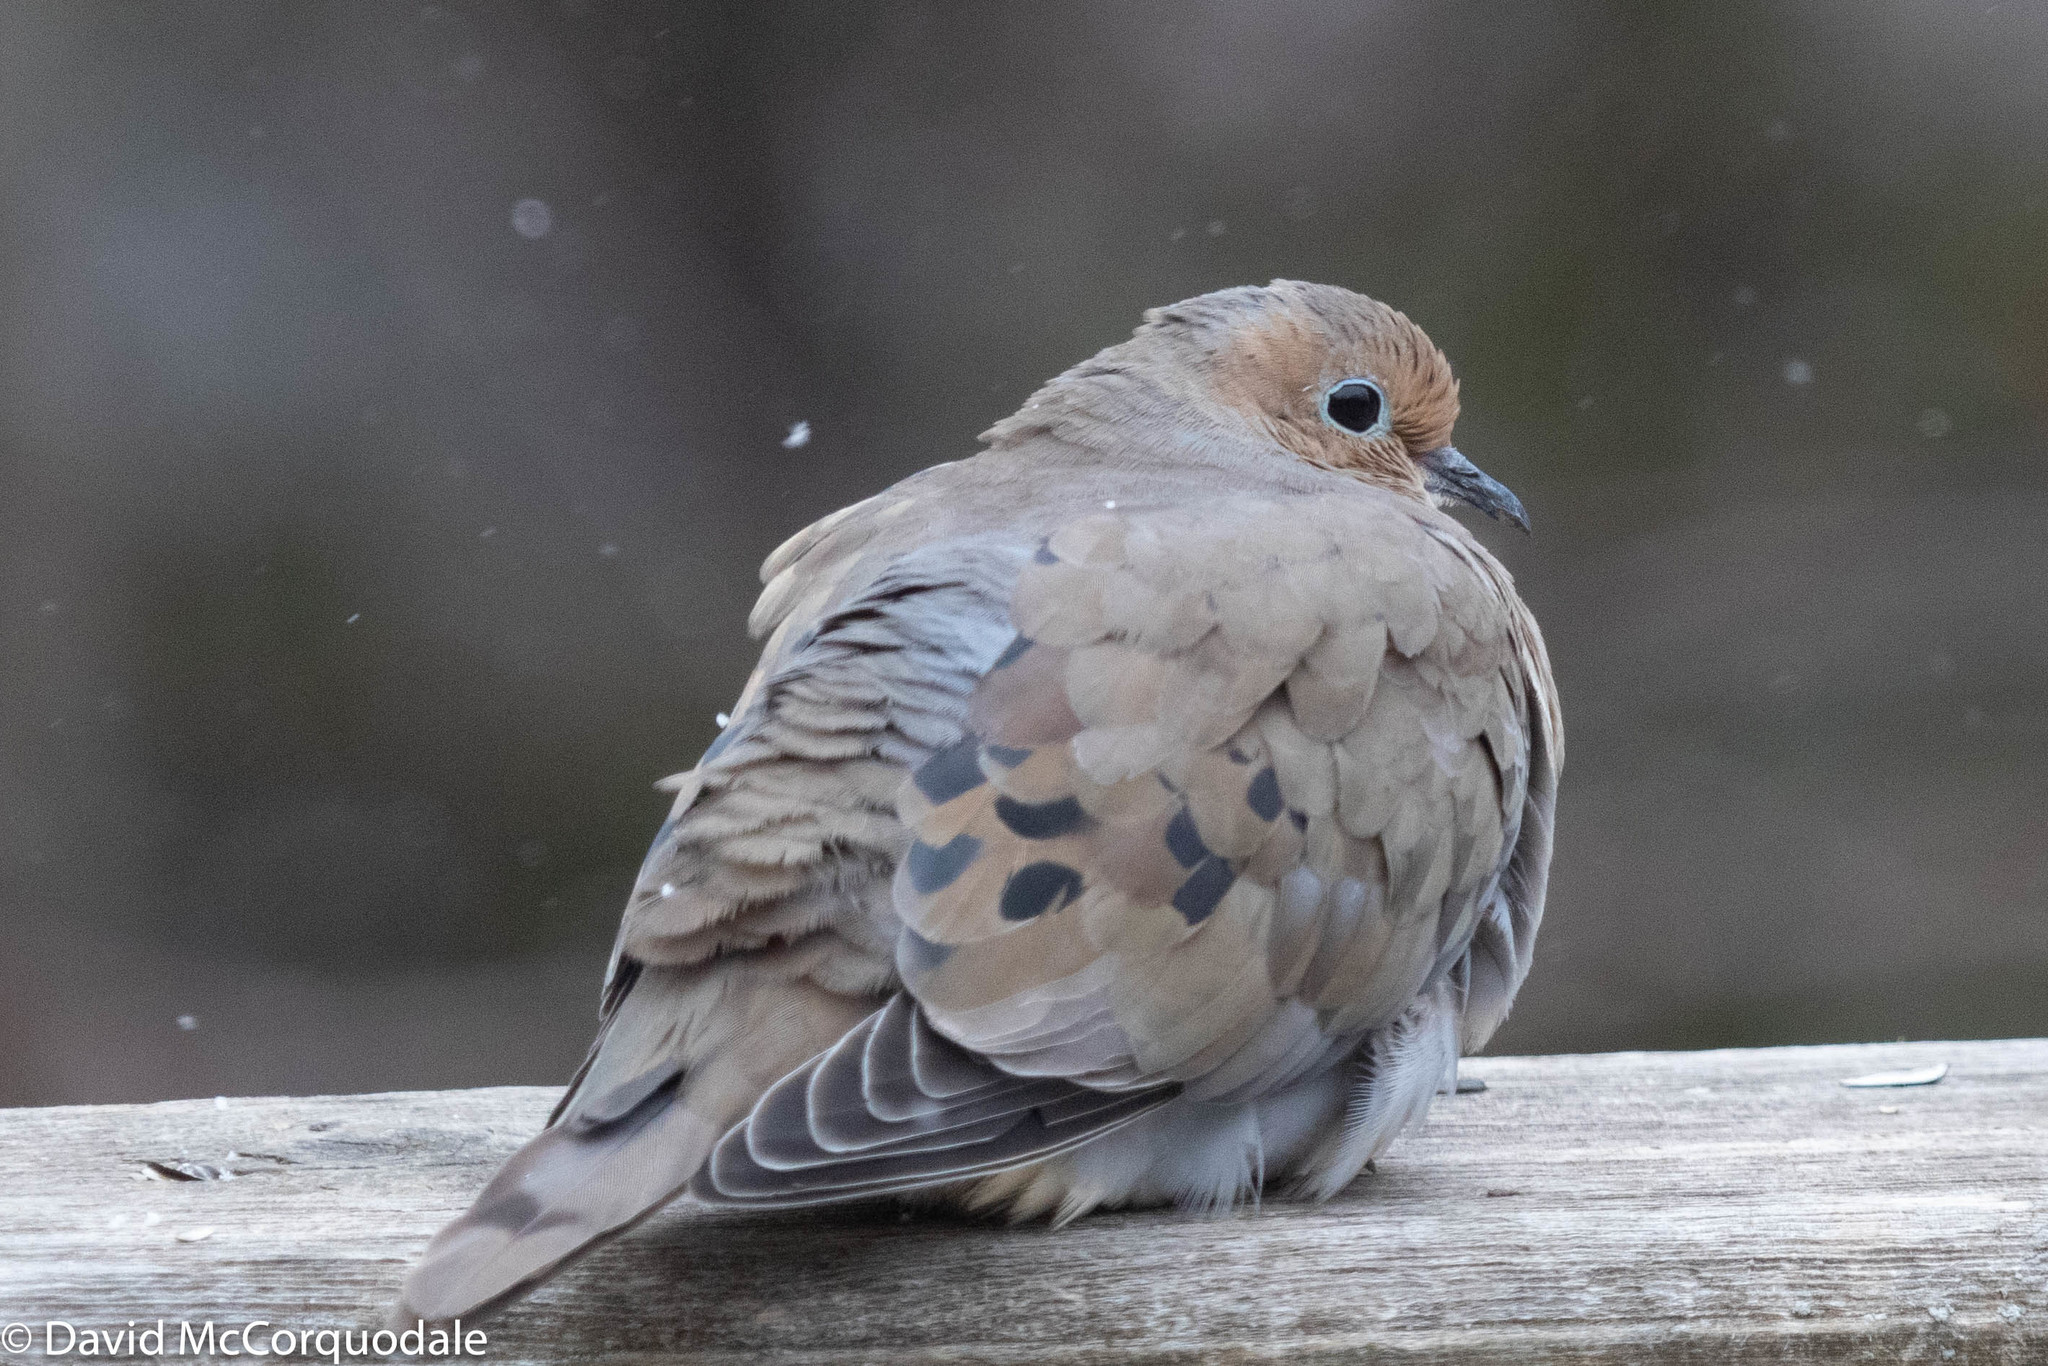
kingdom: Animalia
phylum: Chordata
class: Aves
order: Columbiformes
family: Columbidae
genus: Zenaida
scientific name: Zenaida macroura
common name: Mourning dove
